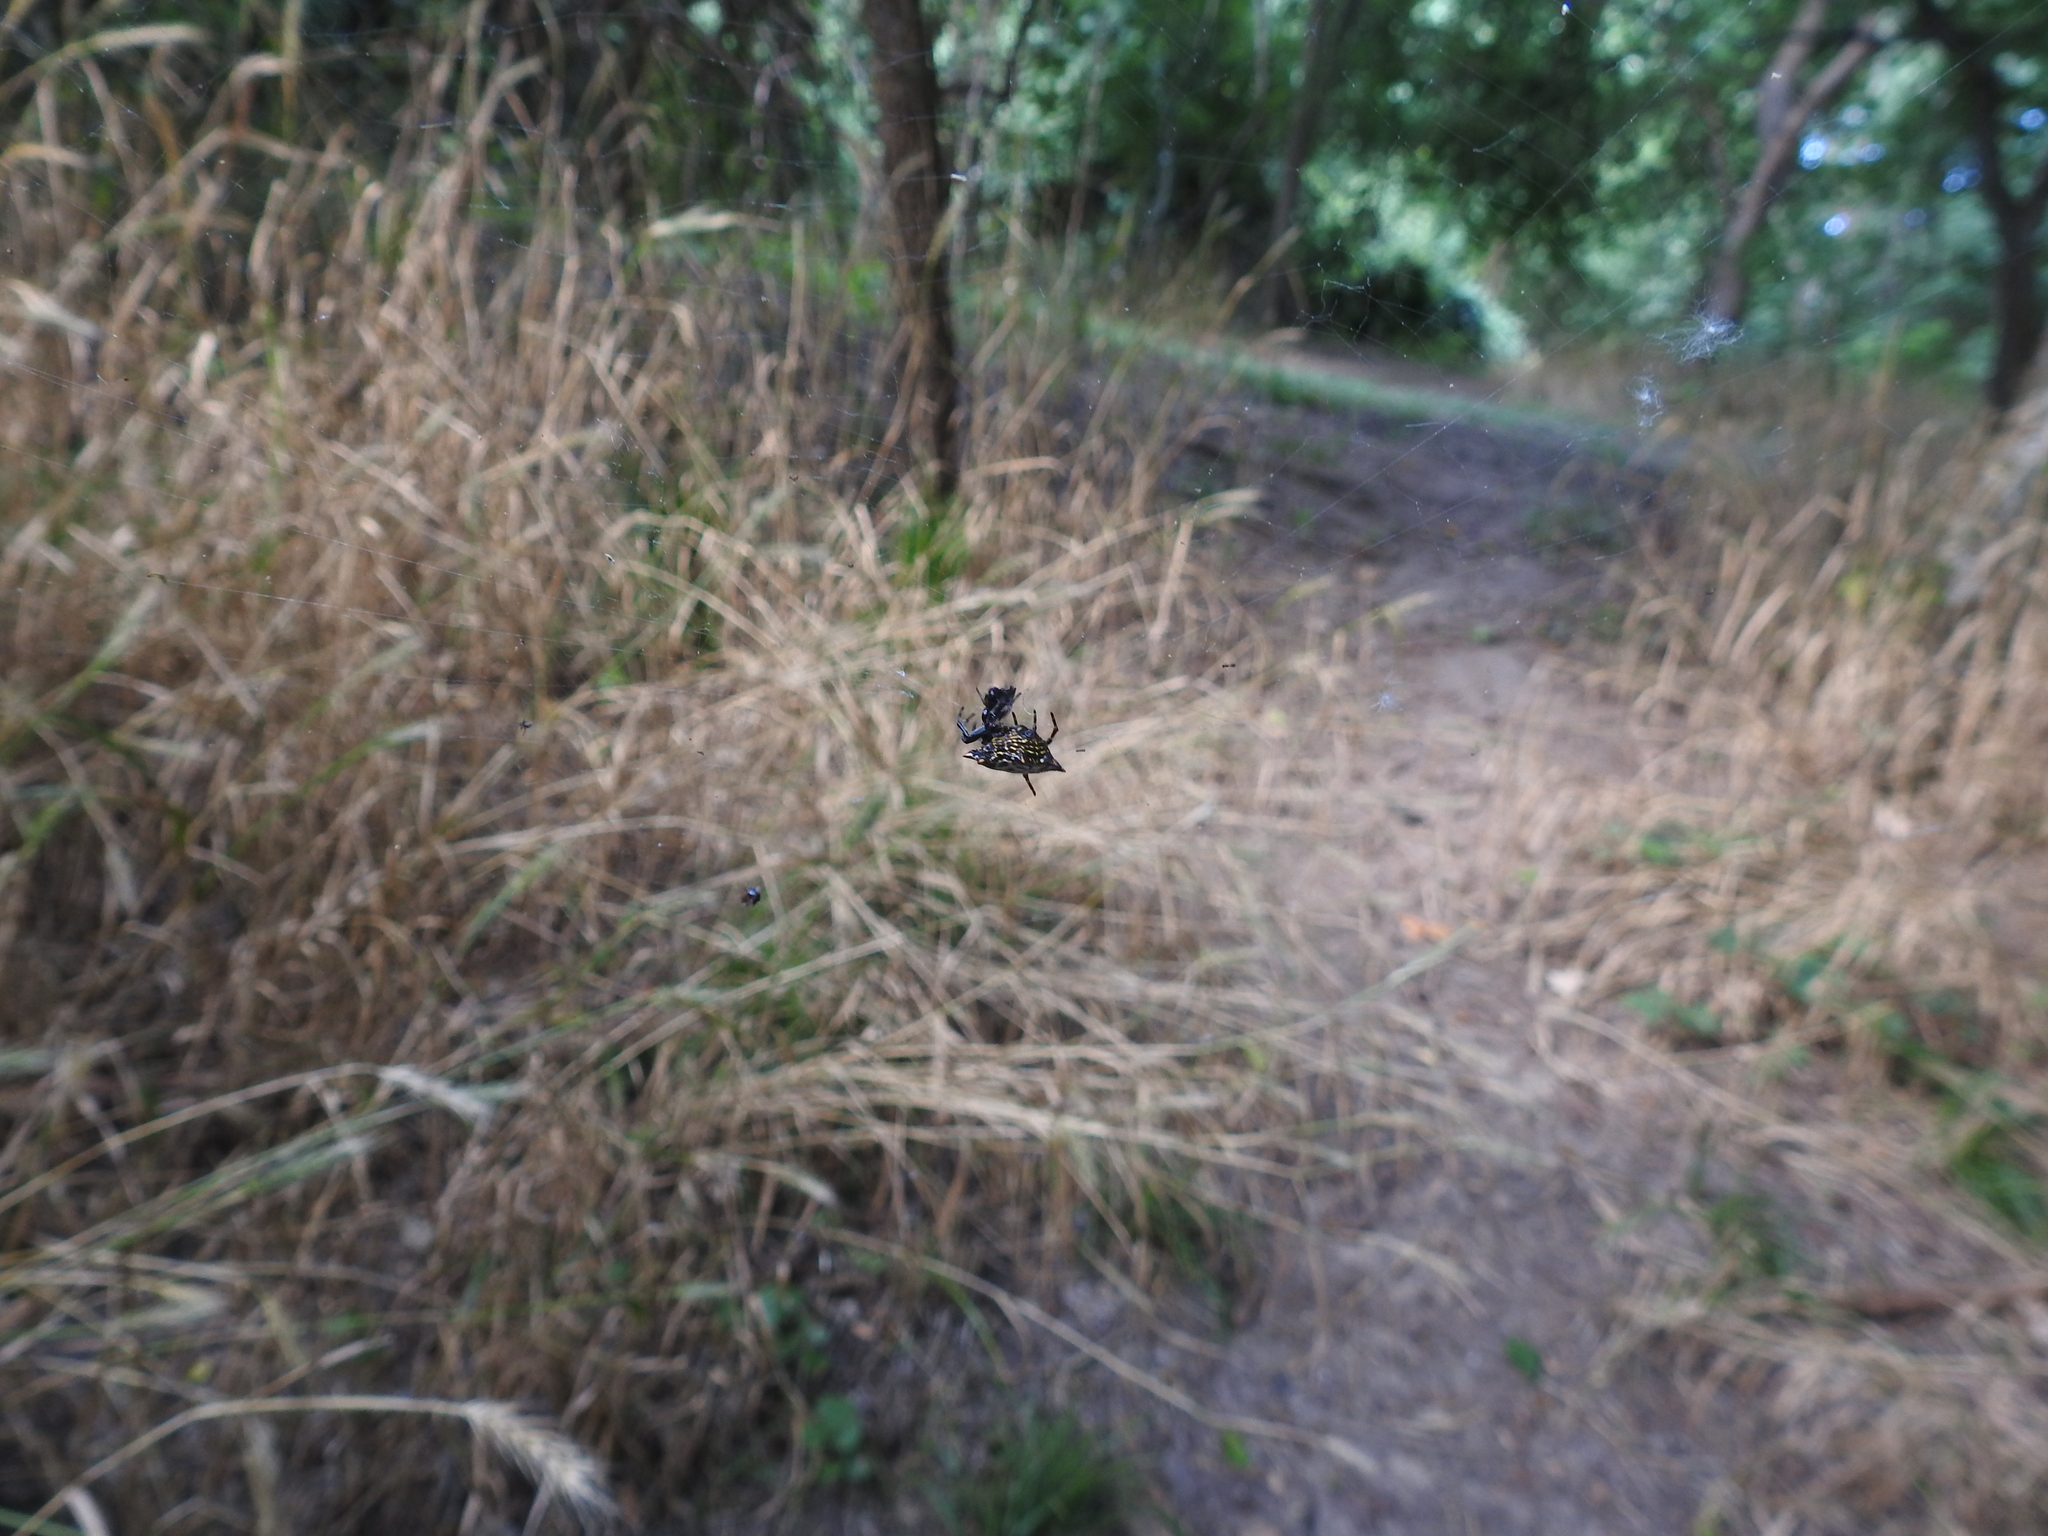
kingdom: Animalia
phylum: Arthropoda
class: Arachnida
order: Araneae
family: Araneidae
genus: Gasteracantha
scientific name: Gasteracantha cancriformis
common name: Orb weavers
